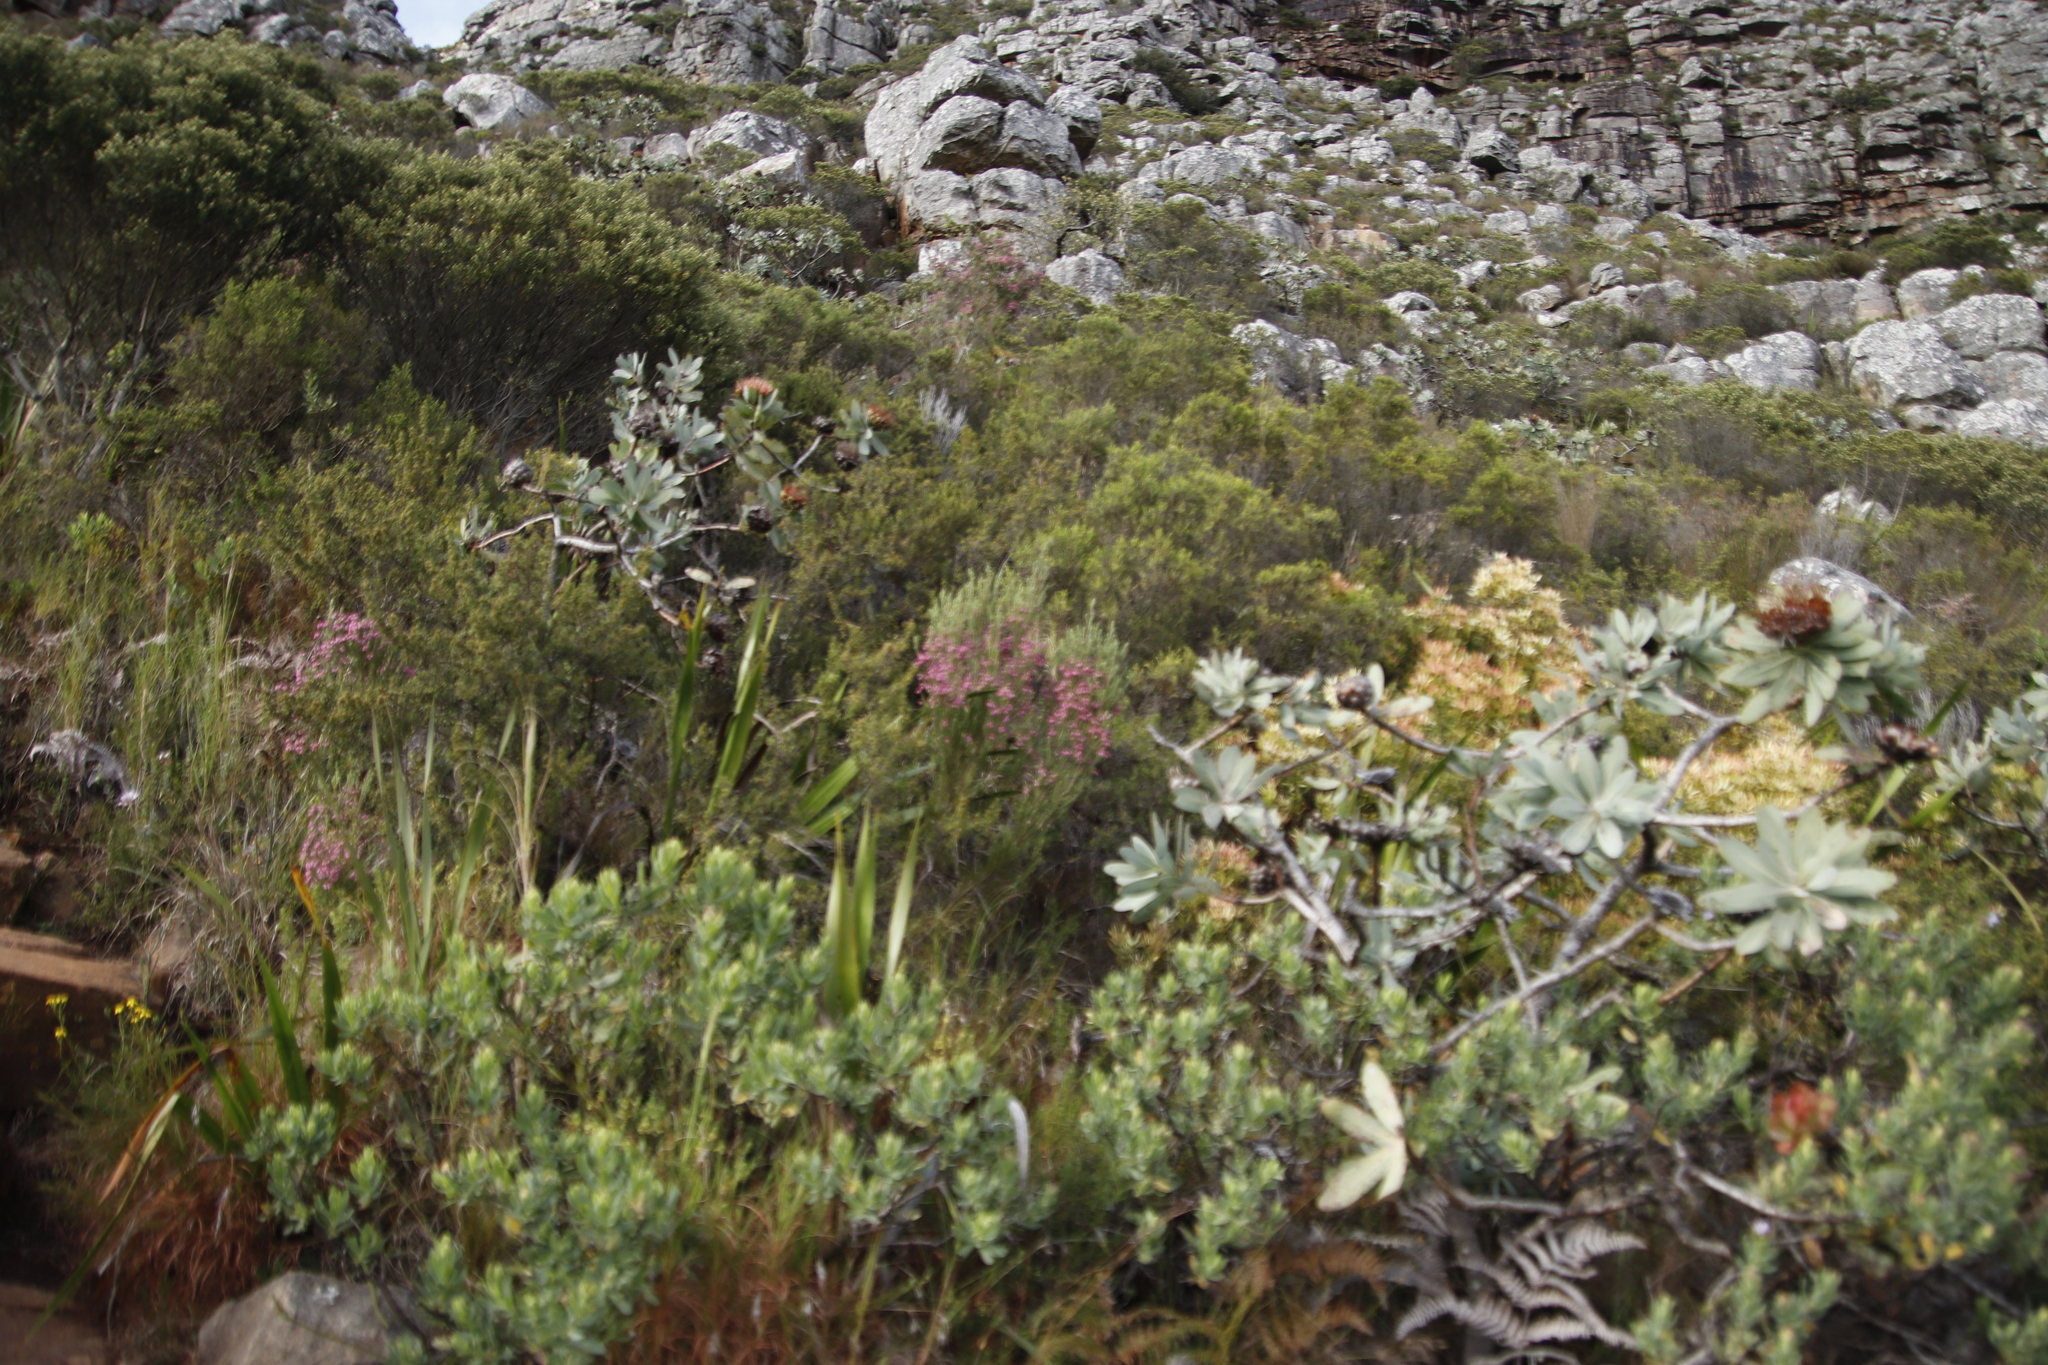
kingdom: Plantae
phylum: Tracheophyta
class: Magnoliopsida
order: Proteales
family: Proteaceae
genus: Protea
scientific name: Protea nitida
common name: Tree protea
